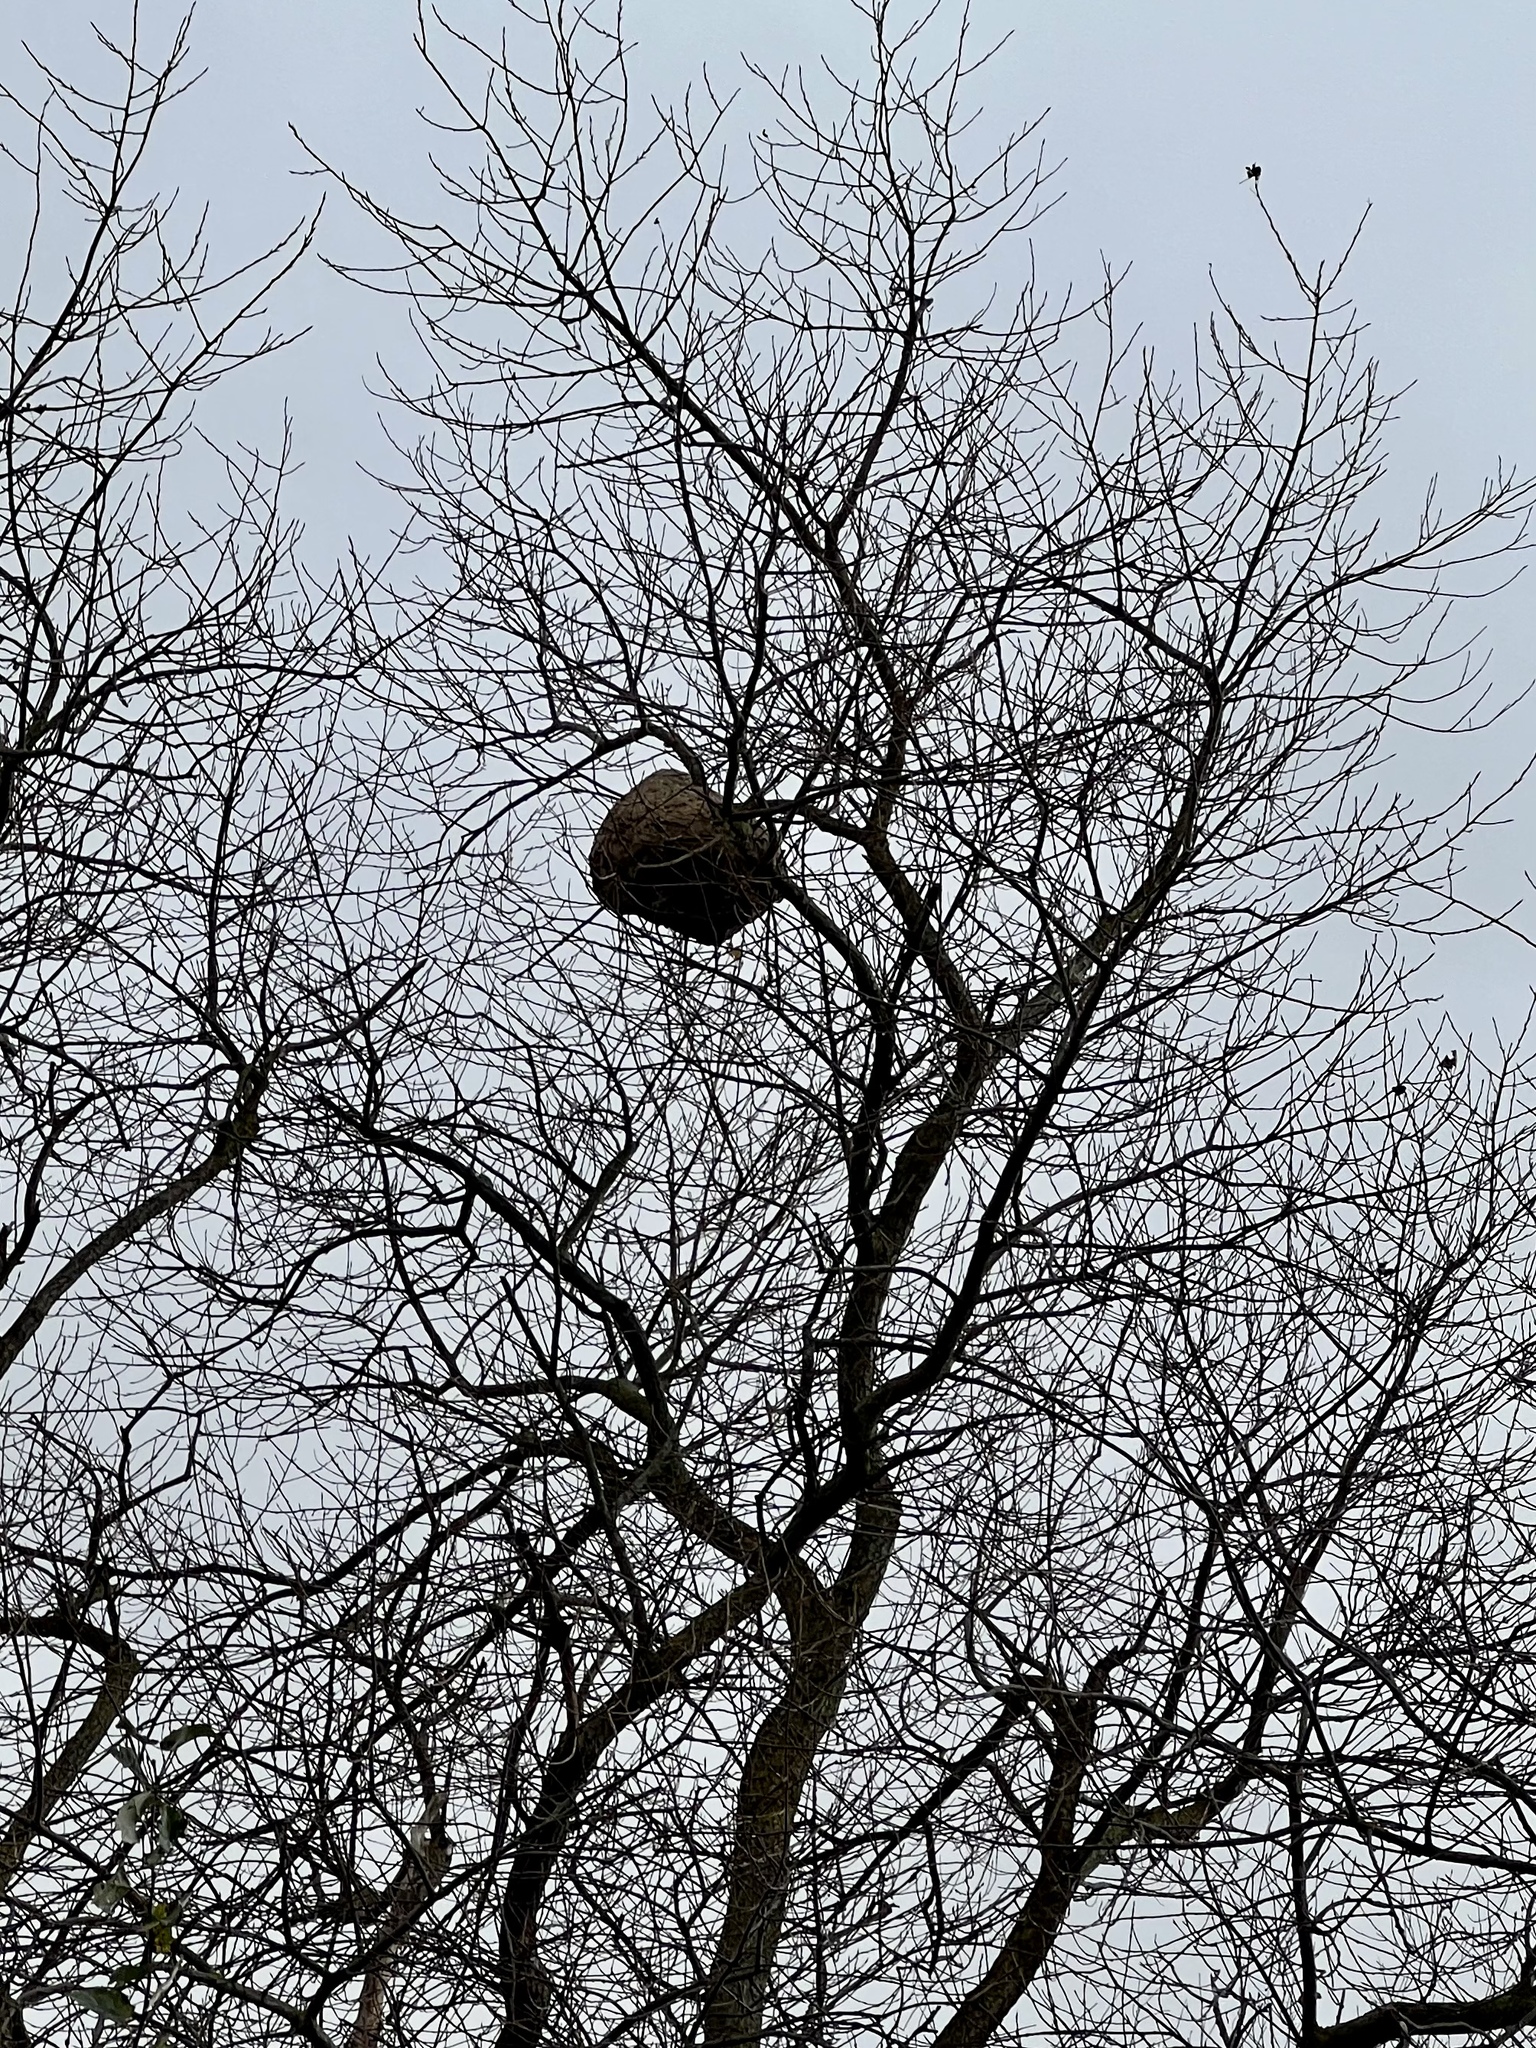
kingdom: Animalia
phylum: Arthropoda
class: Insecta
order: Hymenoptera
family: Vespidae
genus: Vespa
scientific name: Vespa velutina
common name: Asian hornet
